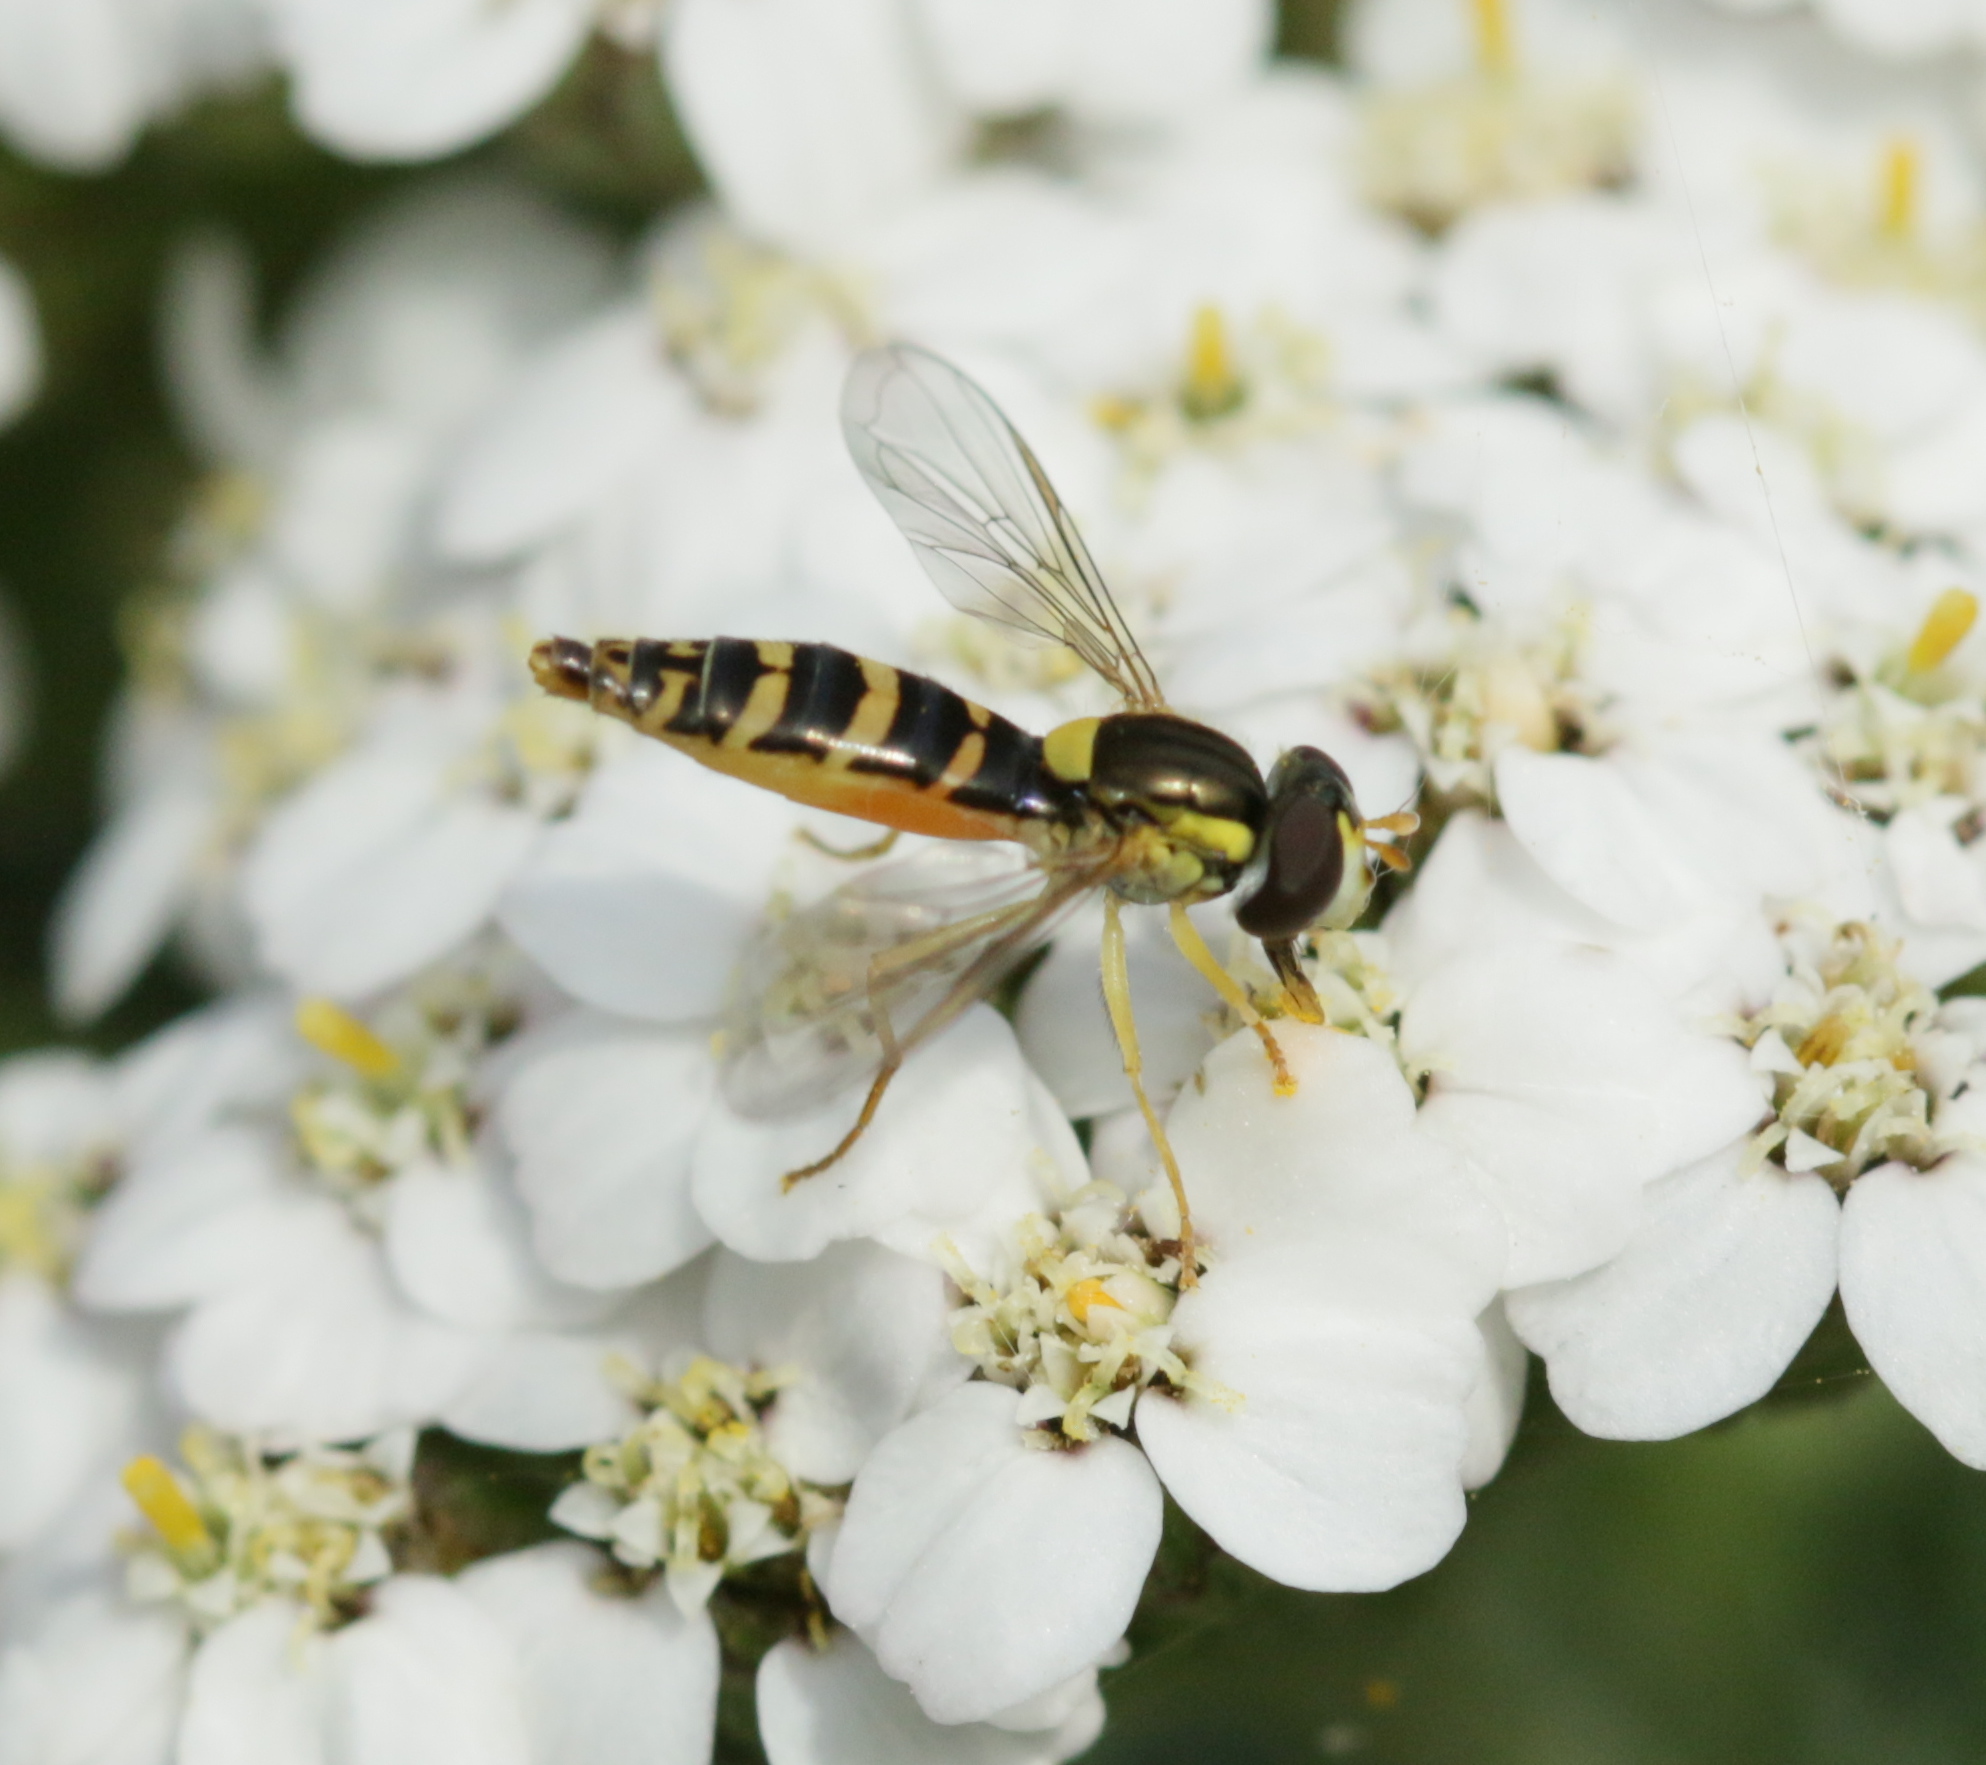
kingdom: Animalia
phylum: Arthropoda
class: Insecta
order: Diptera
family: Syrphidae
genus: Sphaerophoria
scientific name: Sphaerophoria
